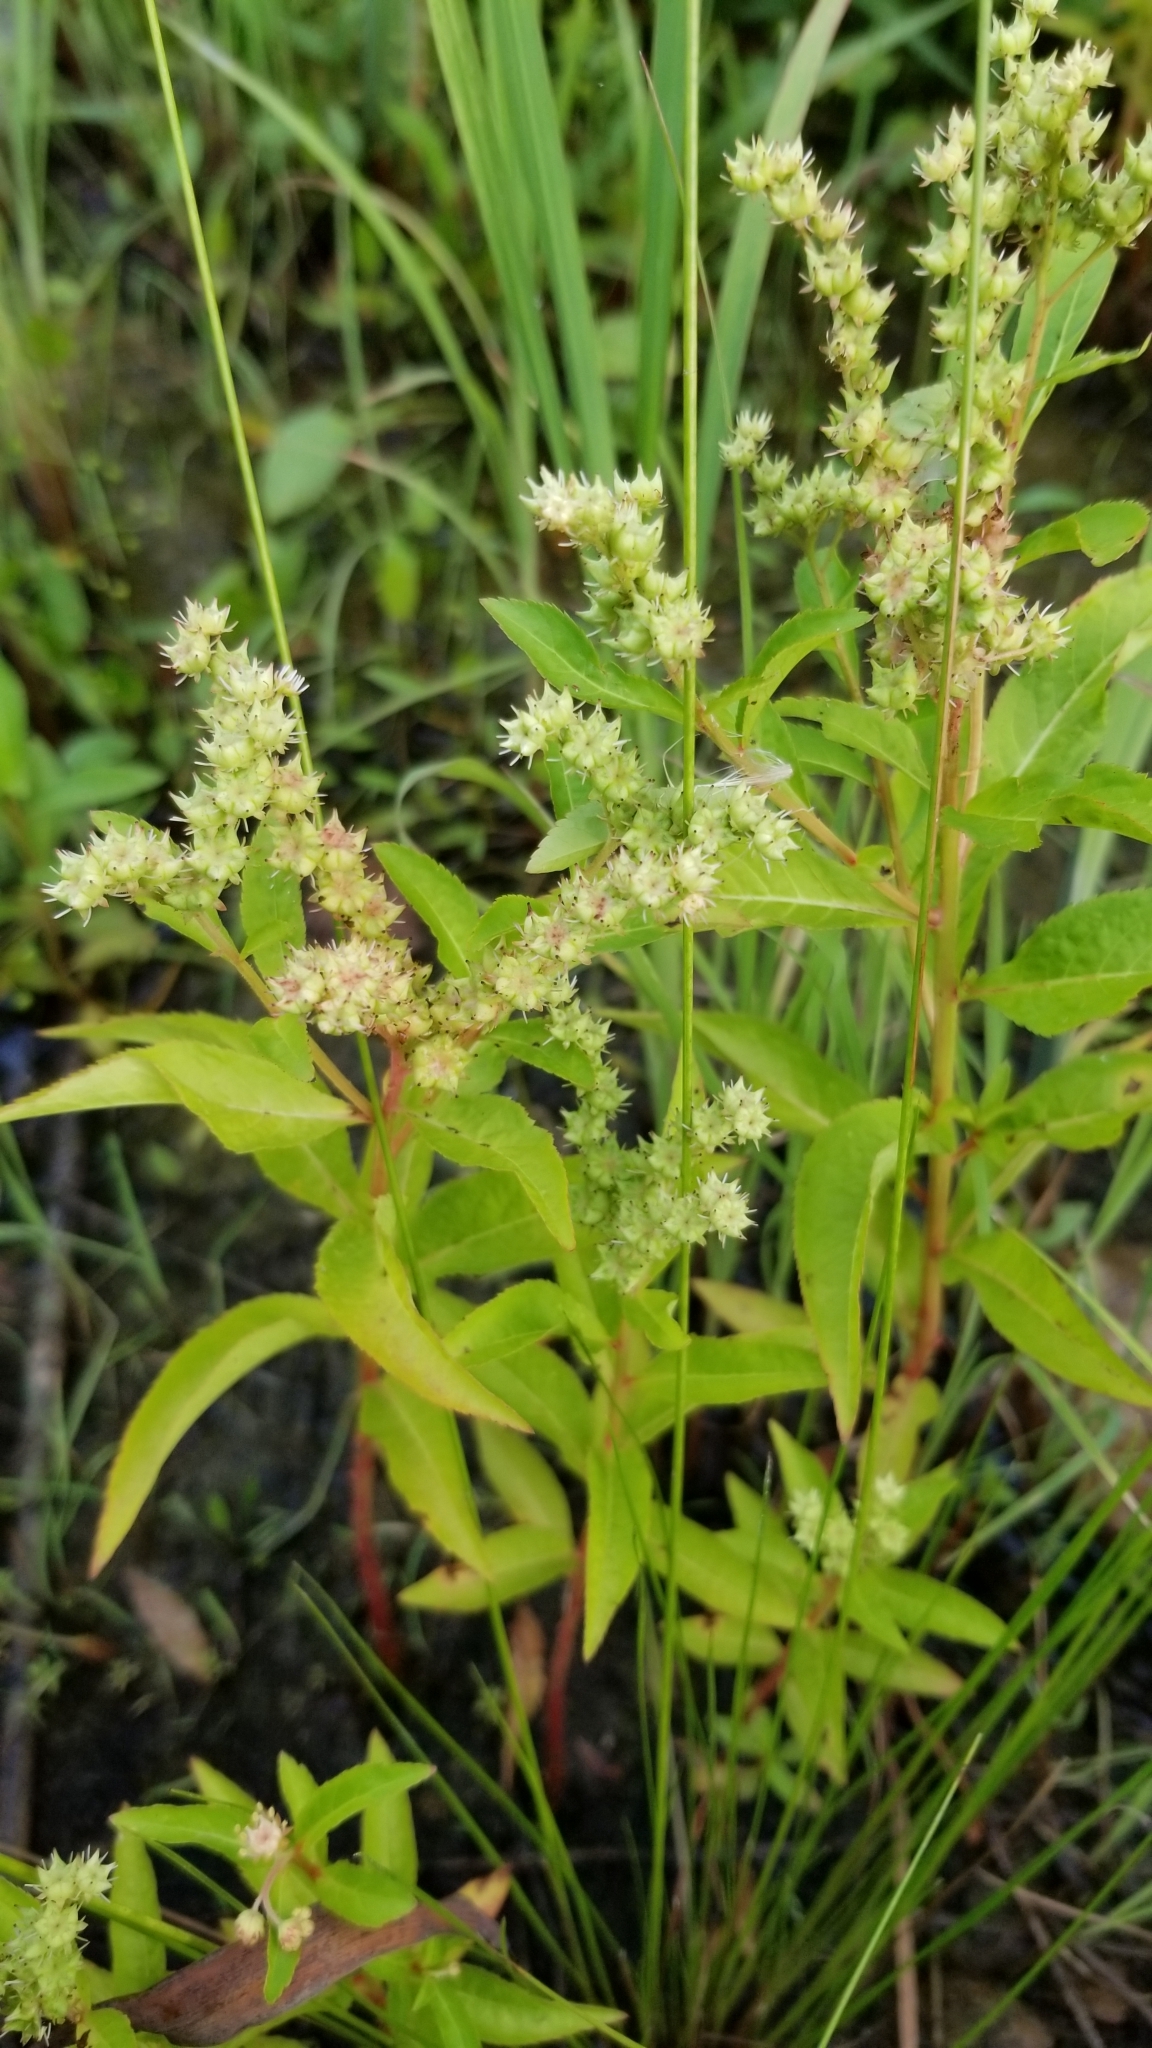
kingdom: Plantae
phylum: Tracheophyta
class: Magnoliopsida
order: Saxifragales
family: Penthoraceae
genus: Penthorum
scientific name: Penthorum sedoides
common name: Ditch stonecrop
